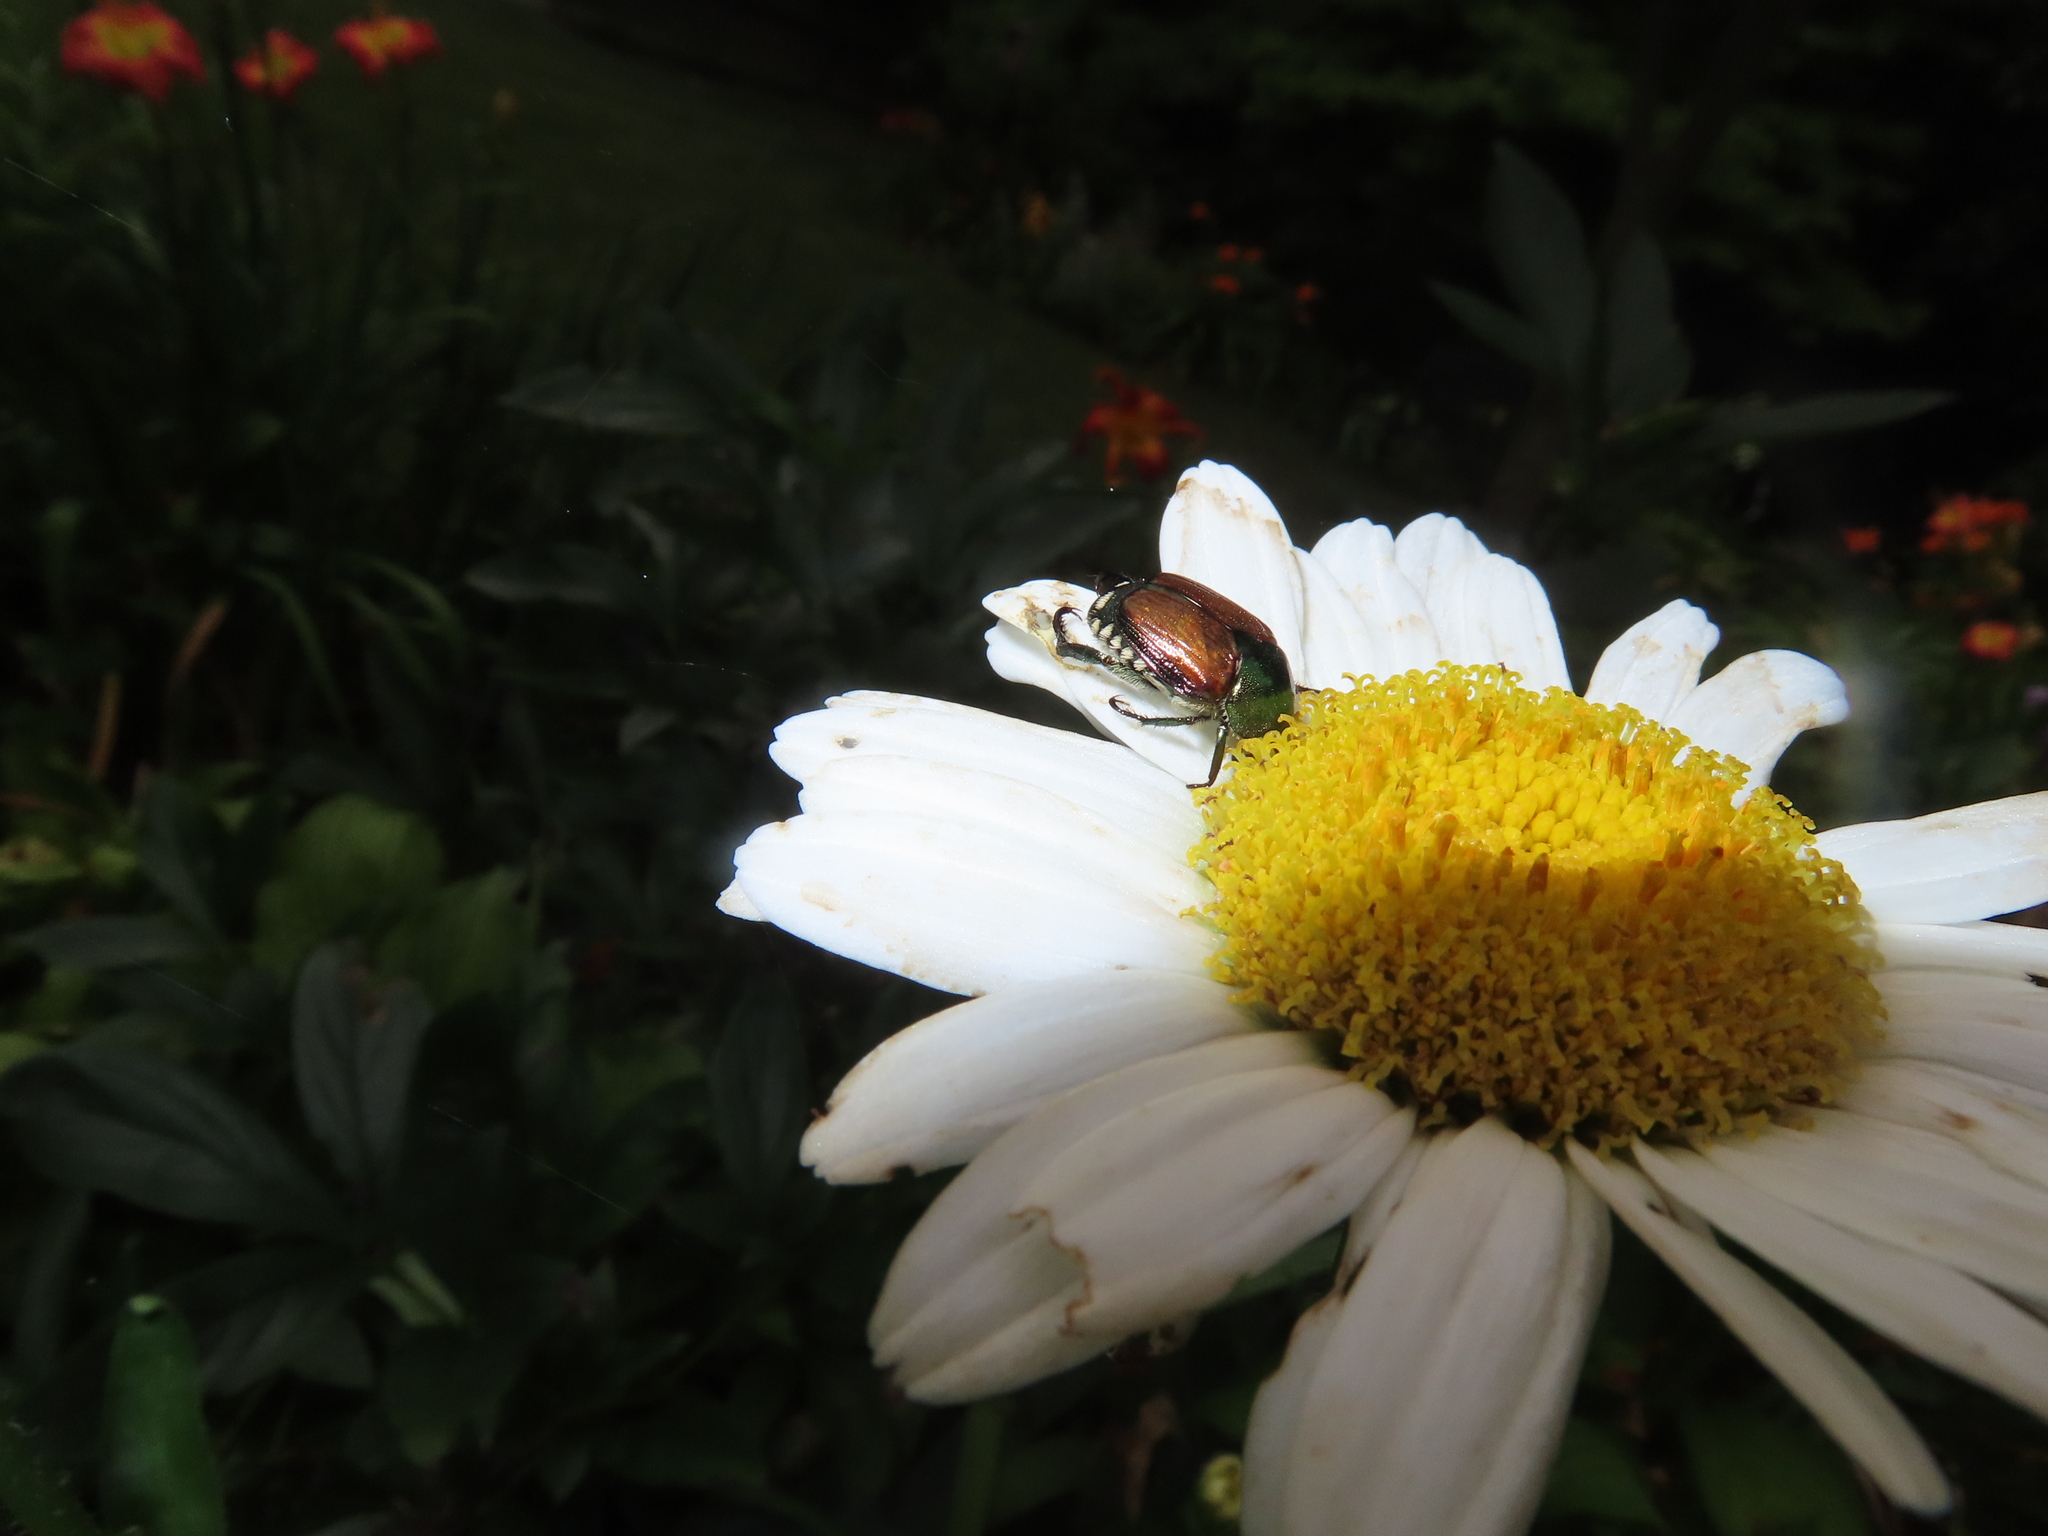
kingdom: Animalia
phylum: Arthropoda
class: Insecta
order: Coleoptera
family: Scarabaeidae
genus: Popillia
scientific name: Popillia japonica
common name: Japanese beetle
